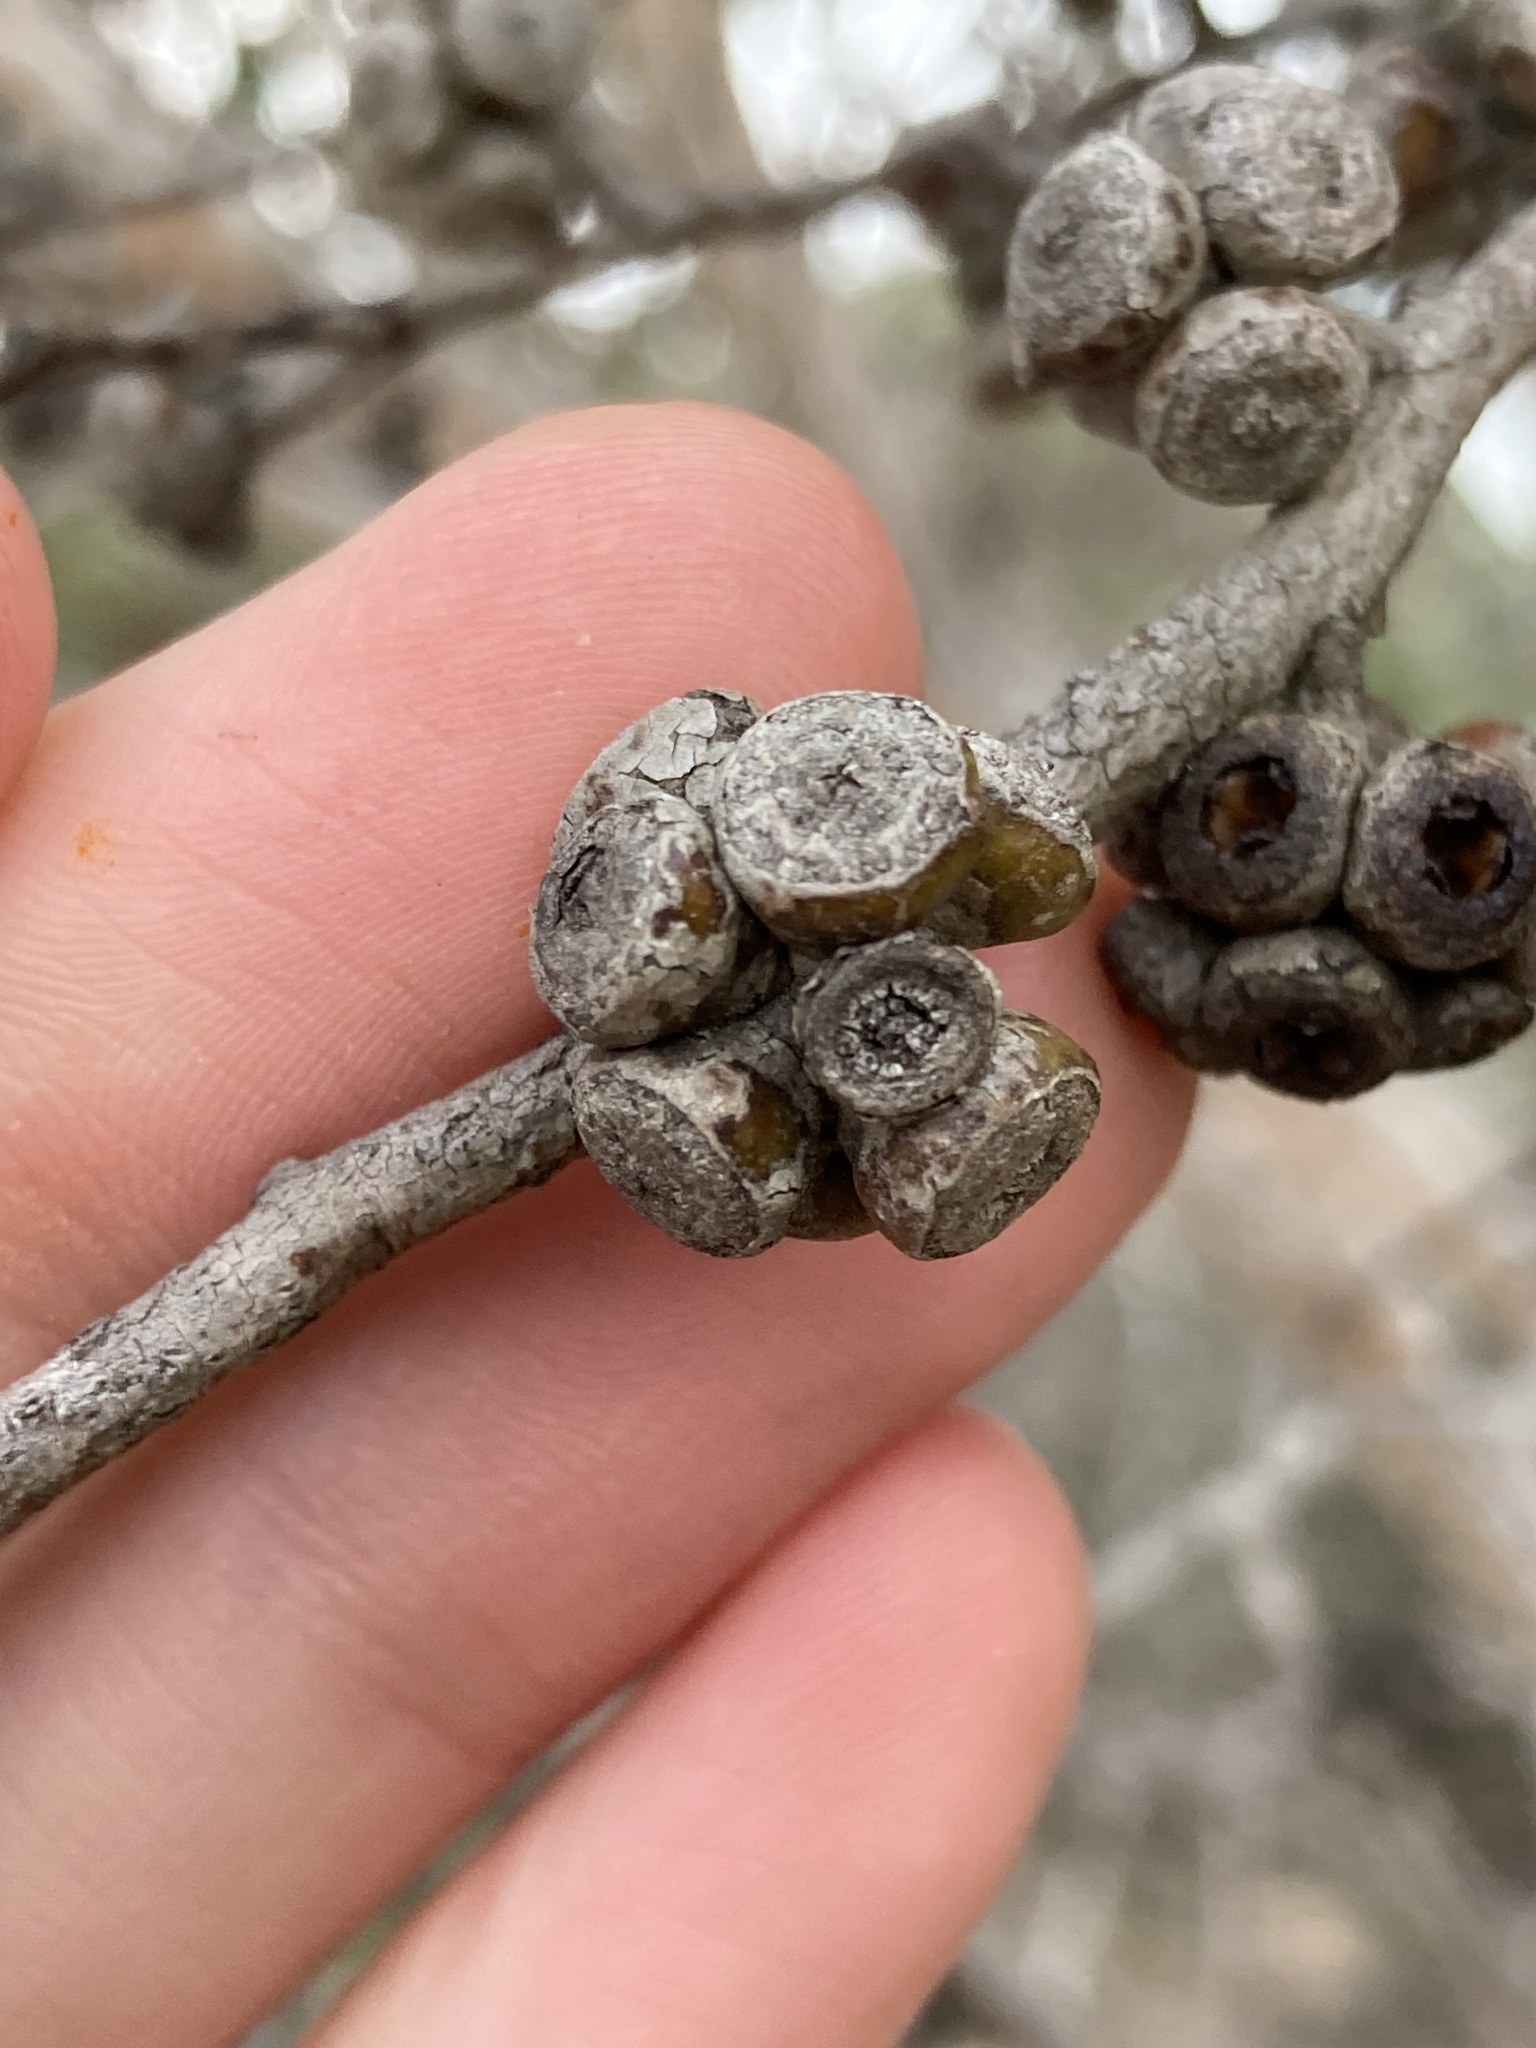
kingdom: Plantae
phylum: Tracheophyta
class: Magnoliopsida
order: Myrtales
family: Myrtaceae
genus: Eucalyptus
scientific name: Eucalyptus decipiens
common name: Limestone marlock
